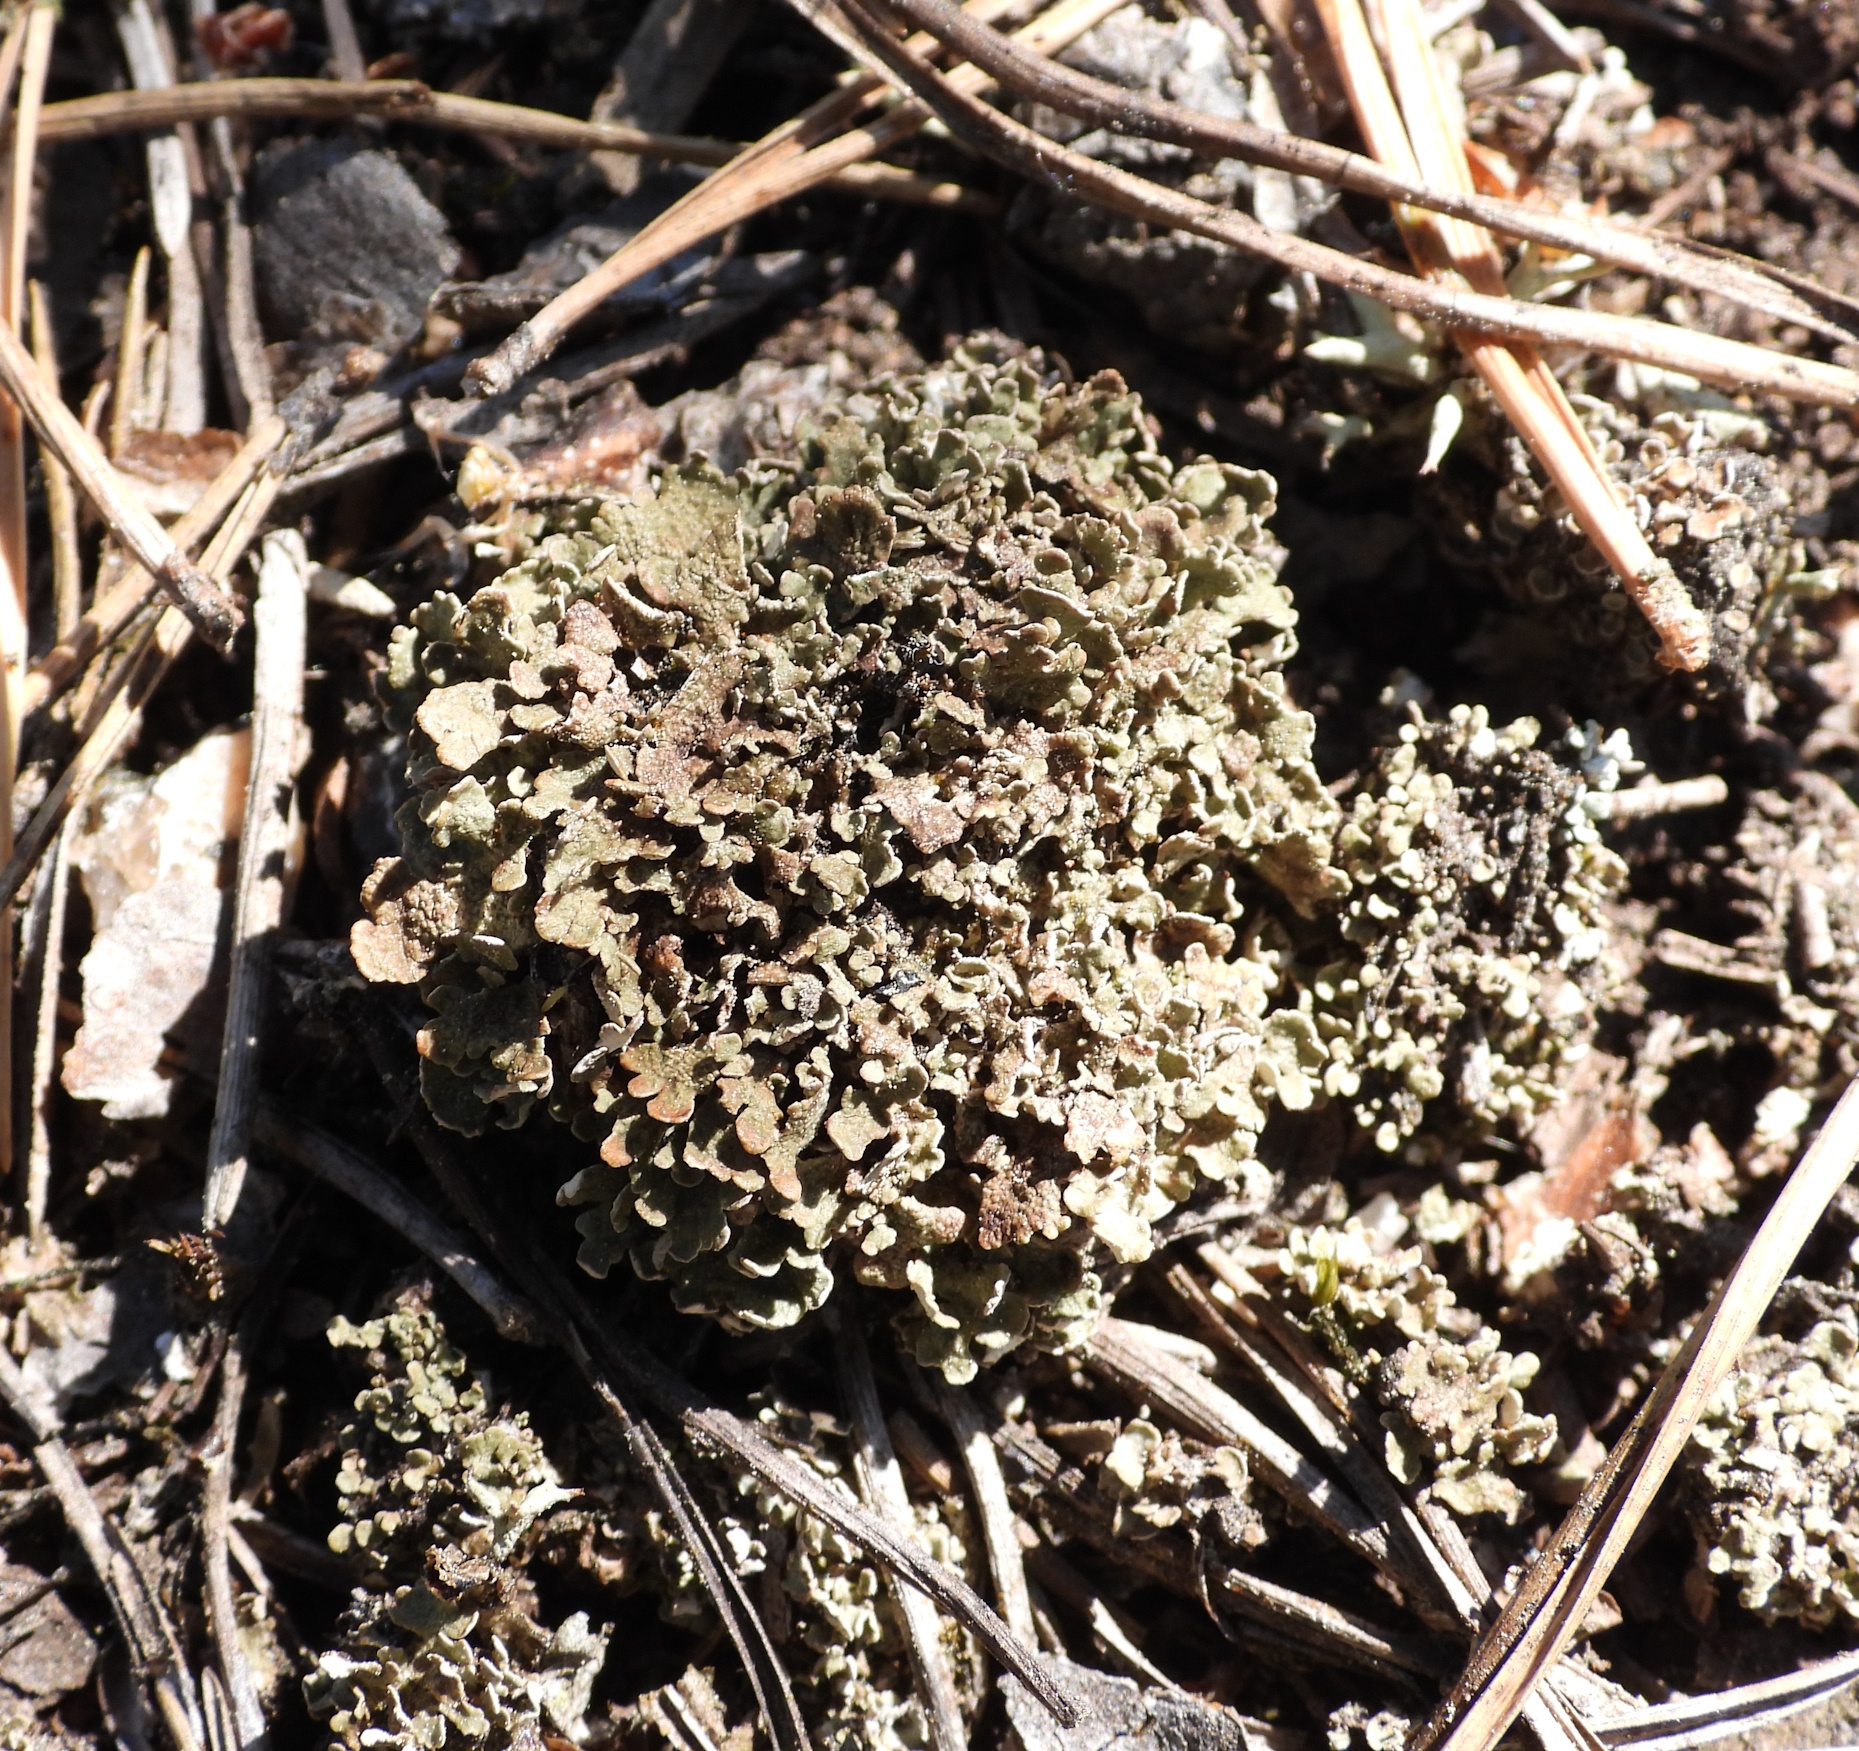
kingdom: Fungi
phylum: Ascomycota
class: Lecanoromycetes
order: Lecanorales
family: Cladoniaceae
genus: Cladonia
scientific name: Cladonia strepsilis
